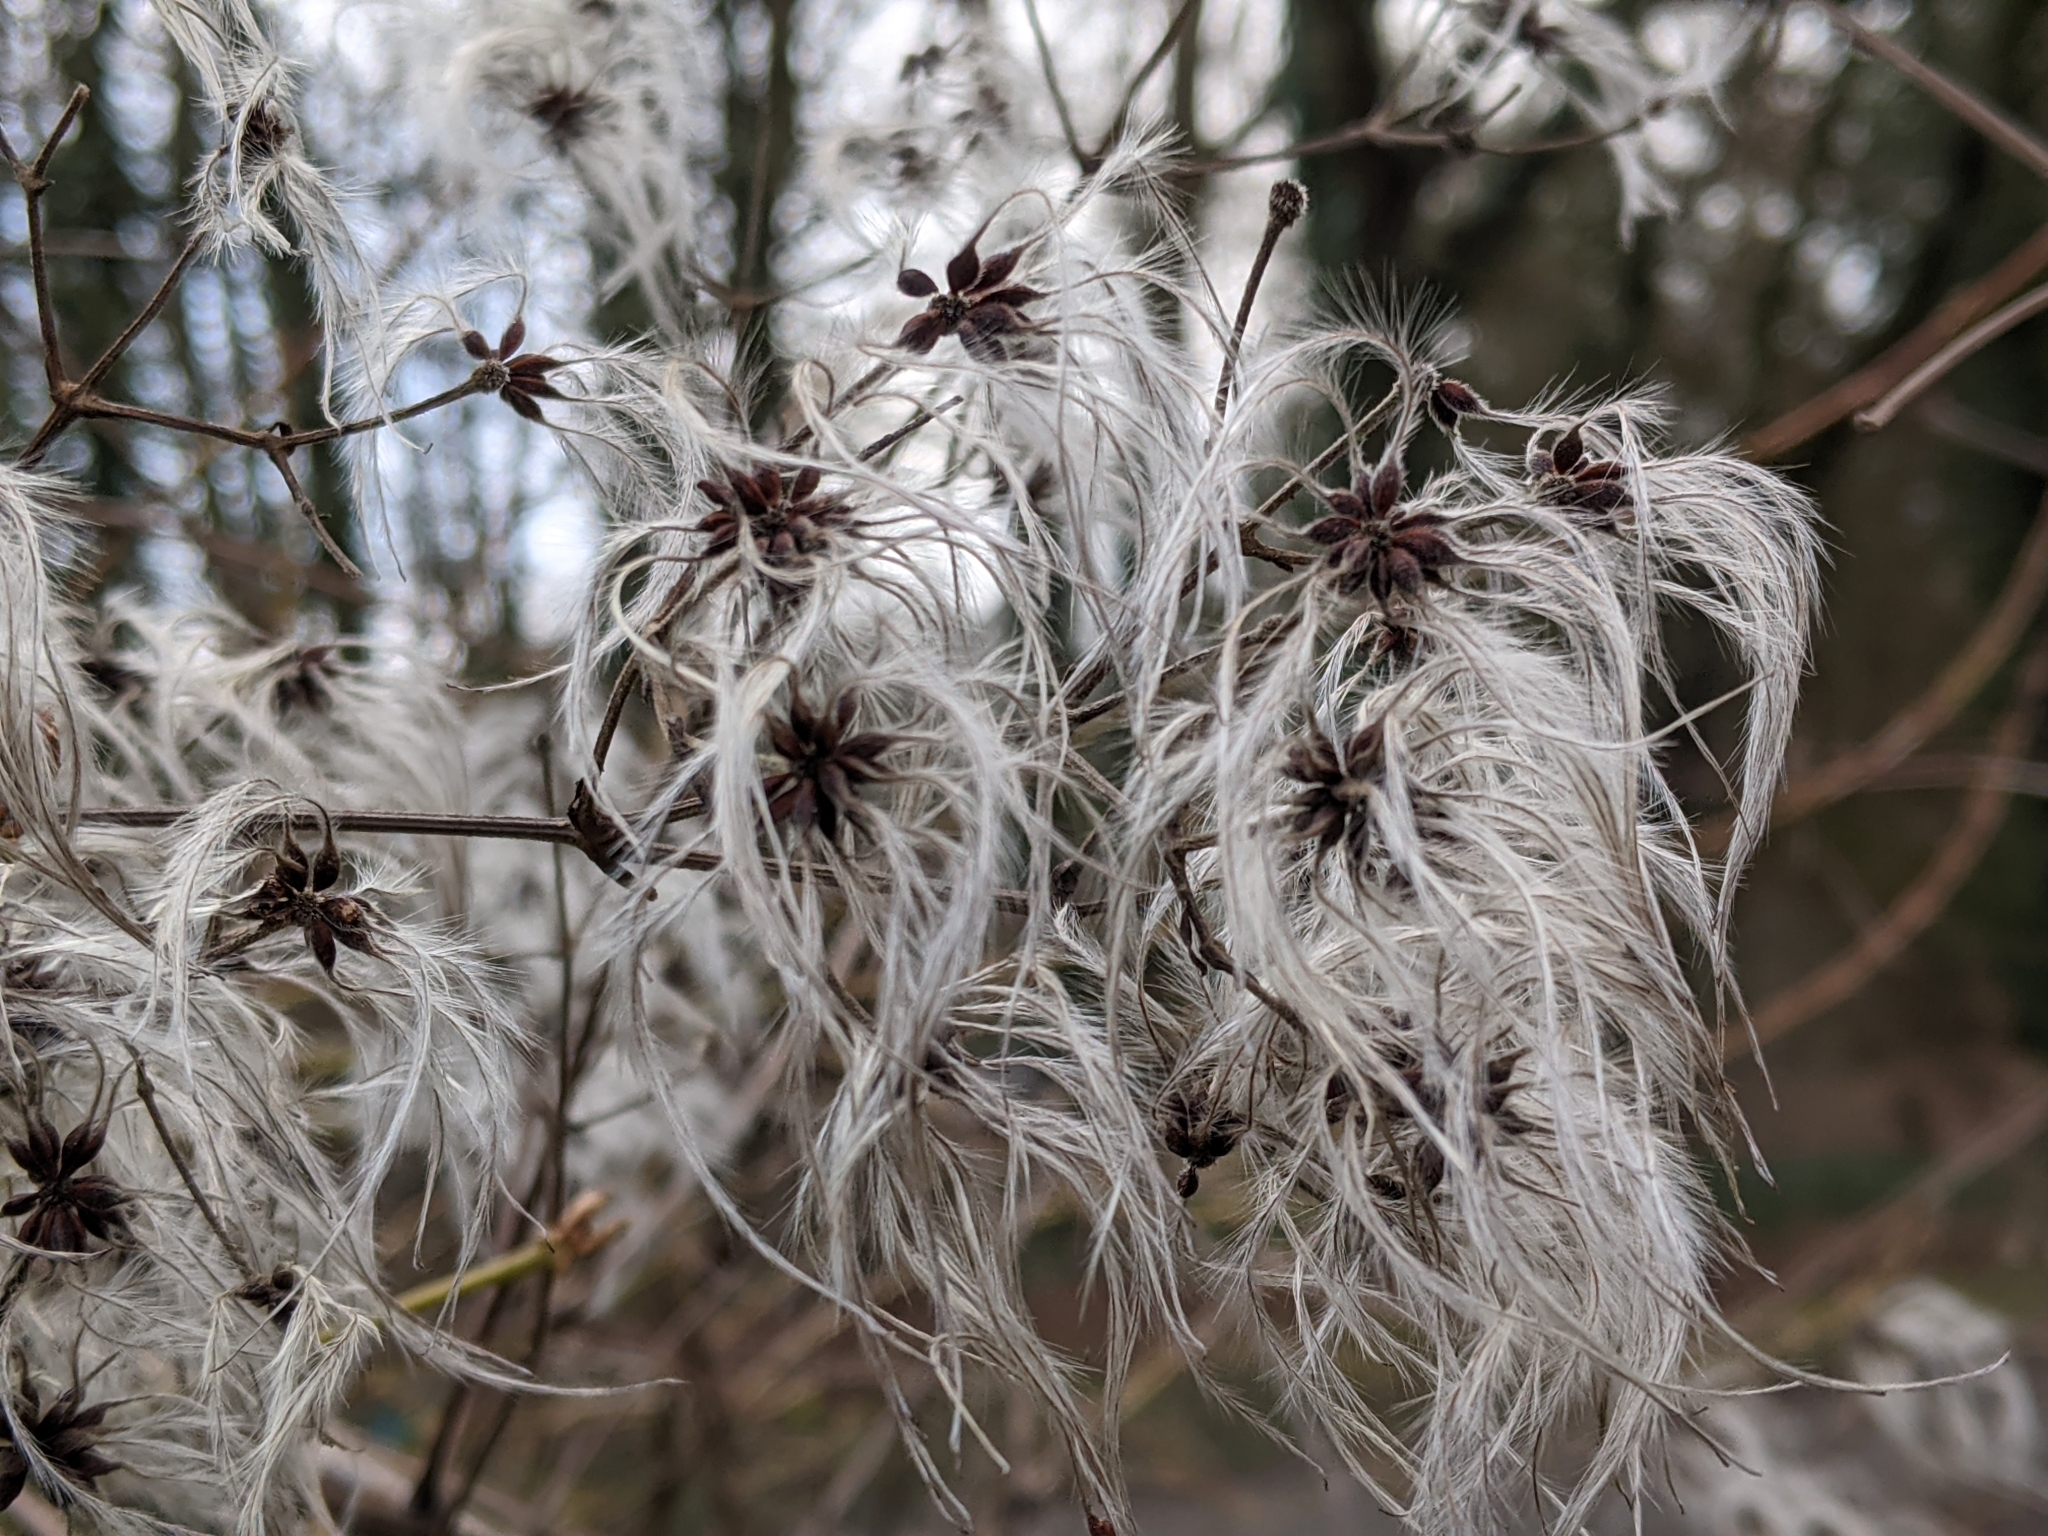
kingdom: Plantae
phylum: Tracheophyta
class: Magnoliopsida
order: Ranunculales
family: Ranunculaceae
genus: Clematis
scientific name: Clematis vitalba
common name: Evergreen clematis
